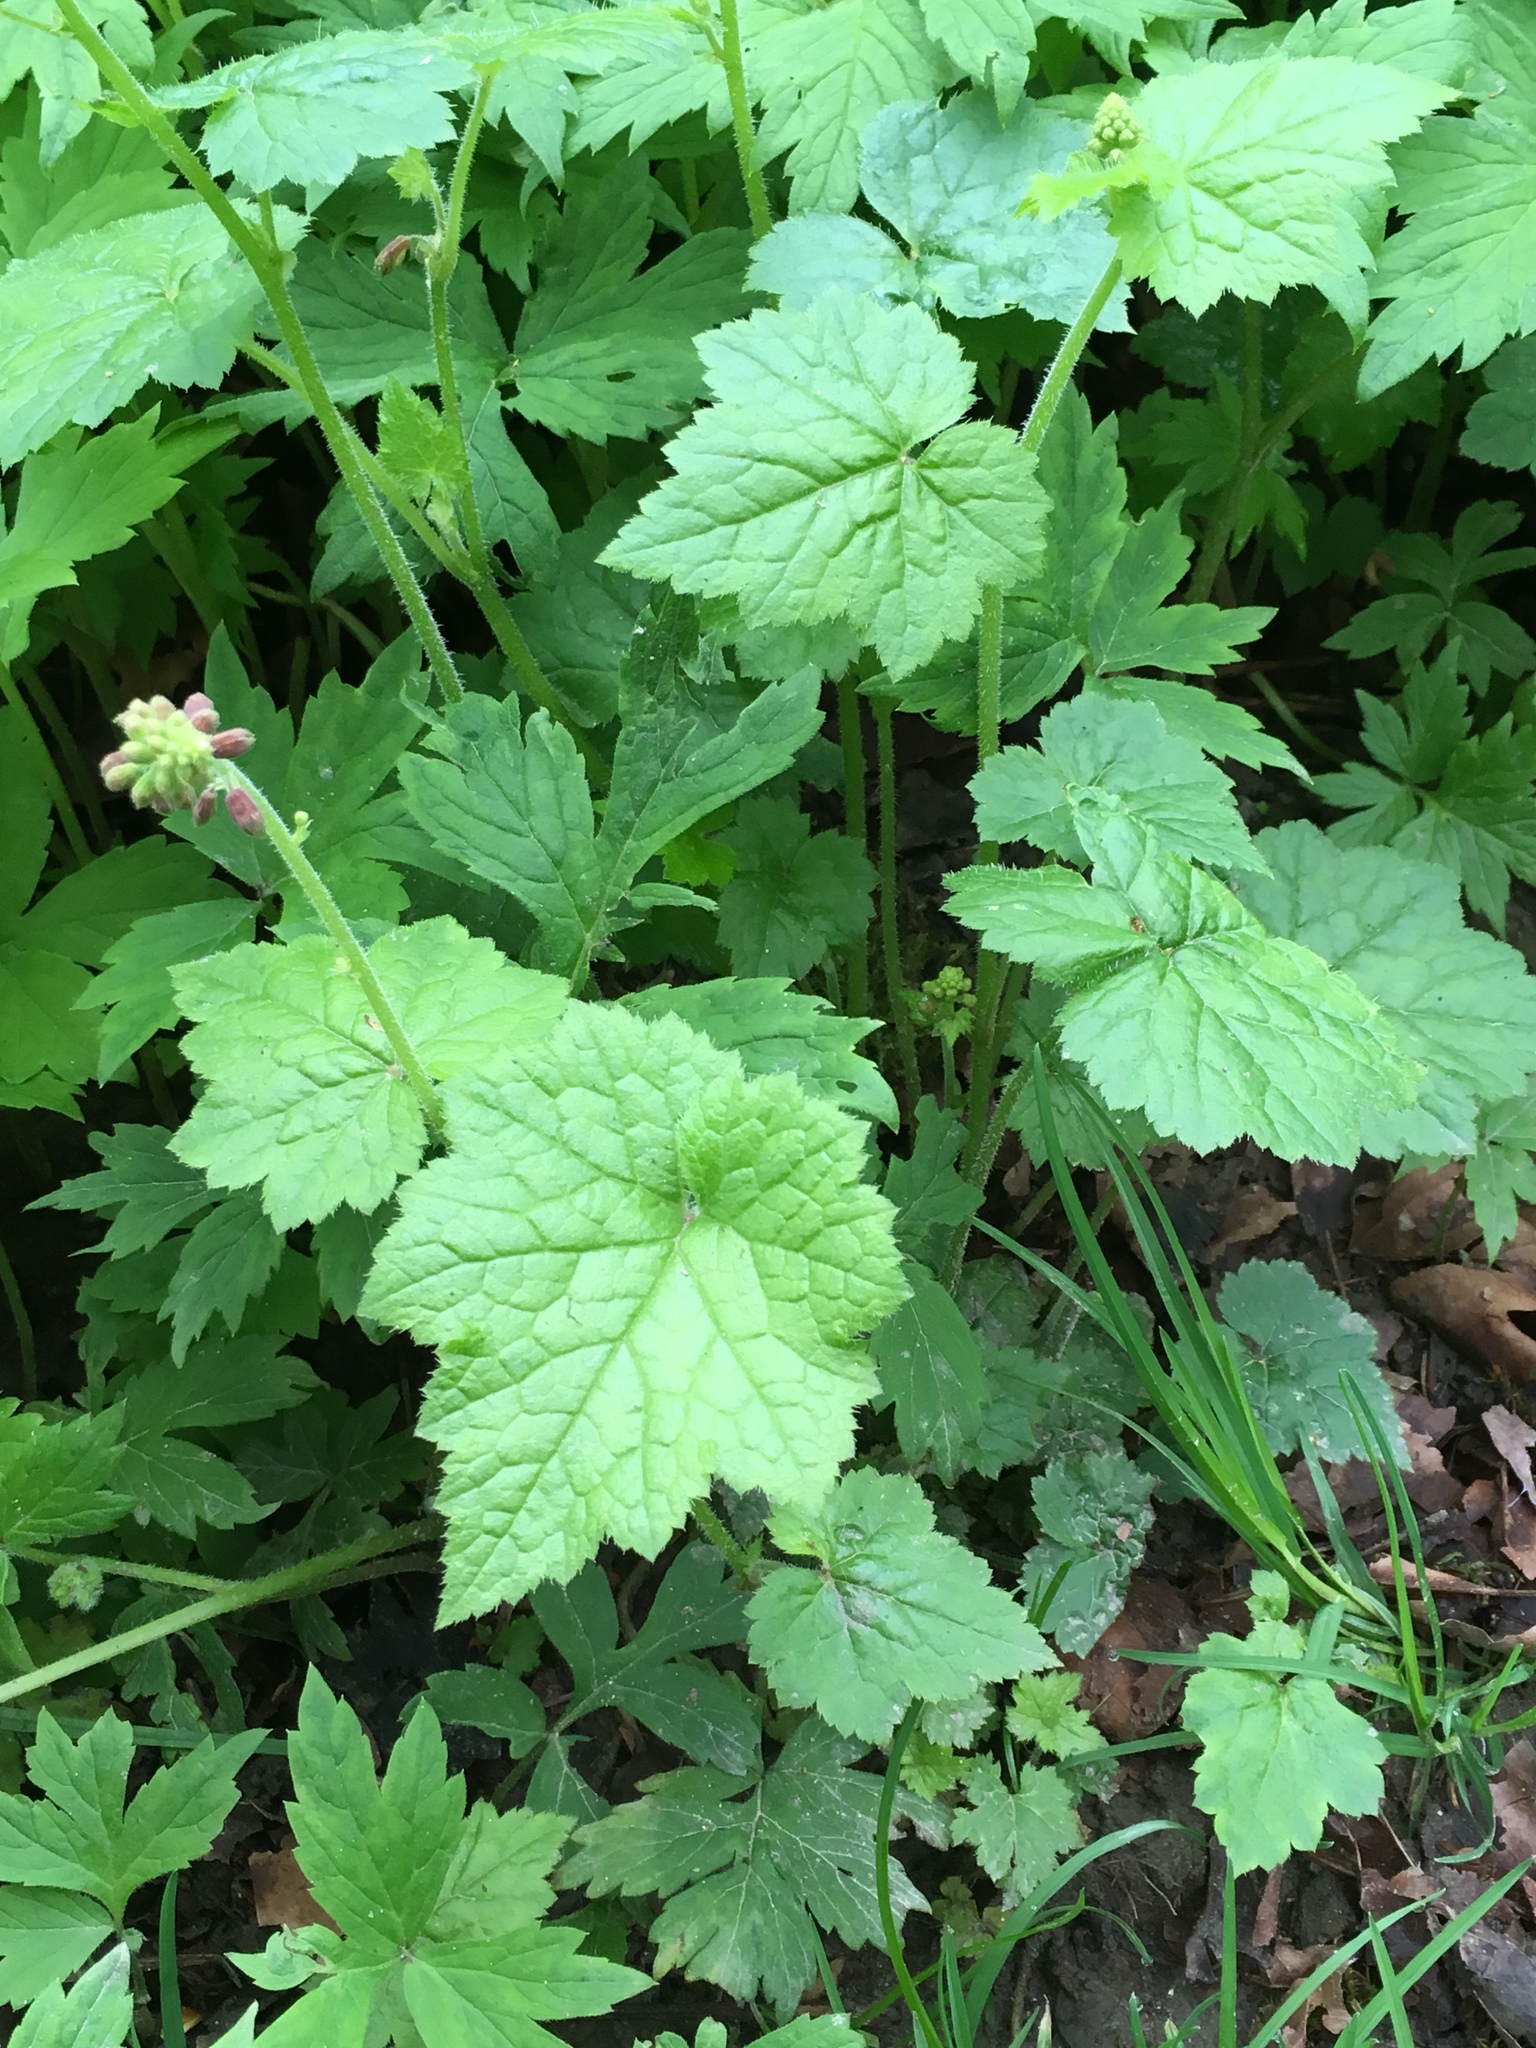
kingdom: Plantae
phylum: Tracheophyta
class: Magnoliopsida
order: Saxifragales
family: Saxifragaceae
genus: Tolmiea
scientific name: Tolmiea menziesii
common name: Pick-a-back-plant
